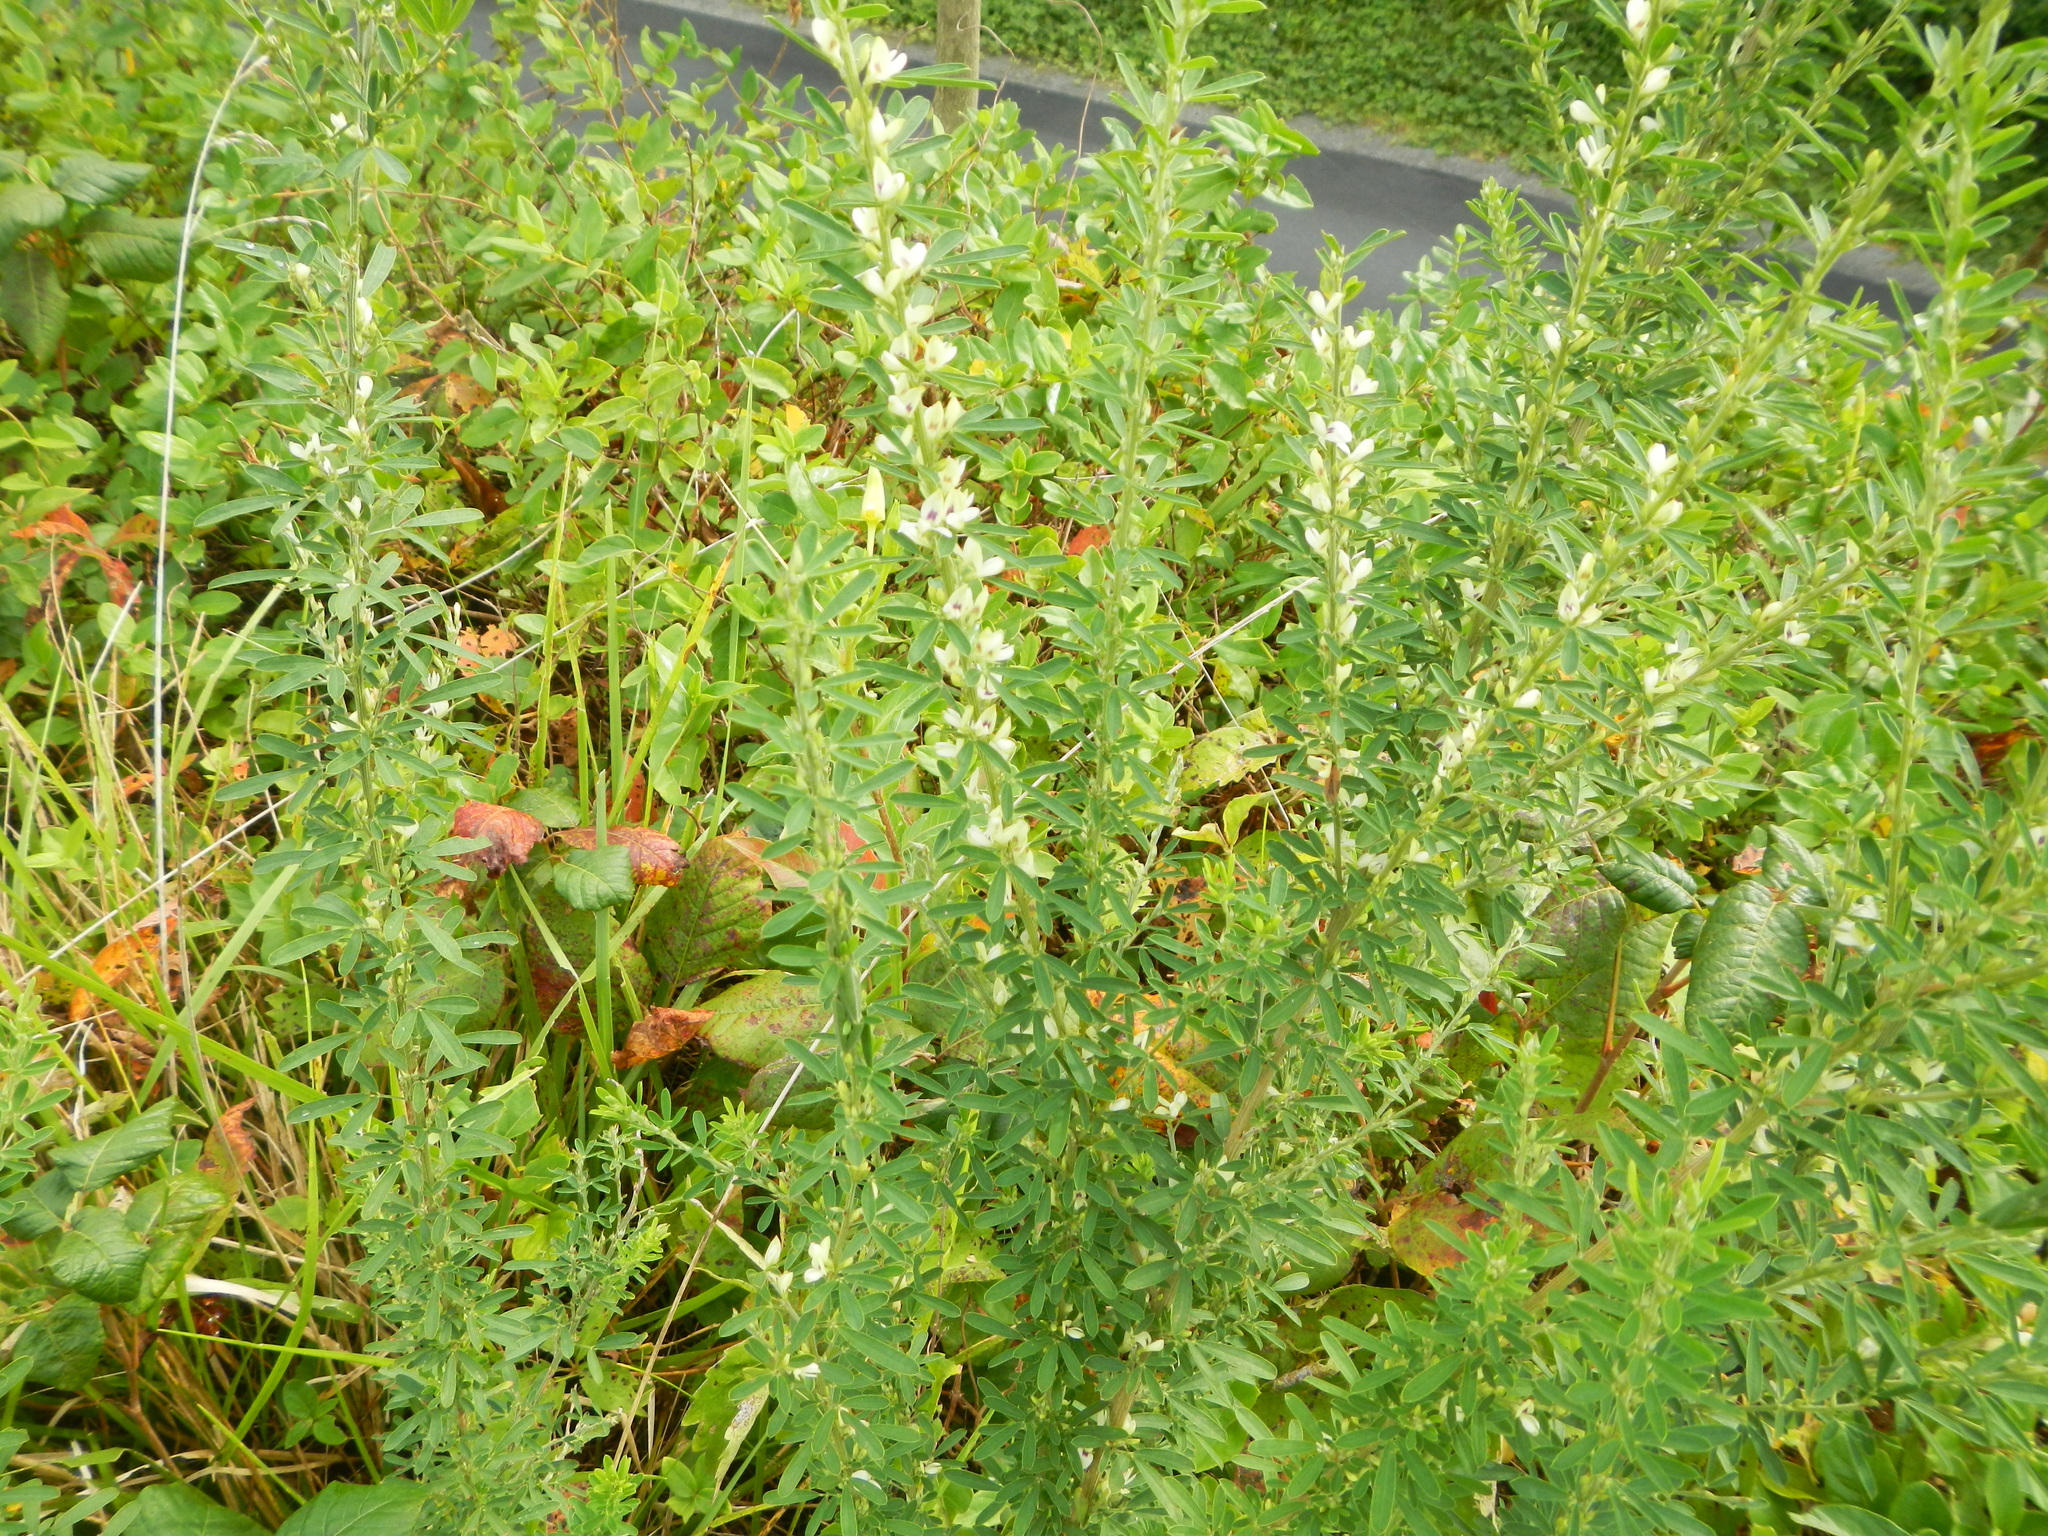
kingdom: Plantae
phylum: Tracheophyta
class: Magnoliopsida
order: Fabales
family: Fabaceae
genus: Lespedeza
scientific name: Lespedeza cuneata
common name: Chinese bush-clover
